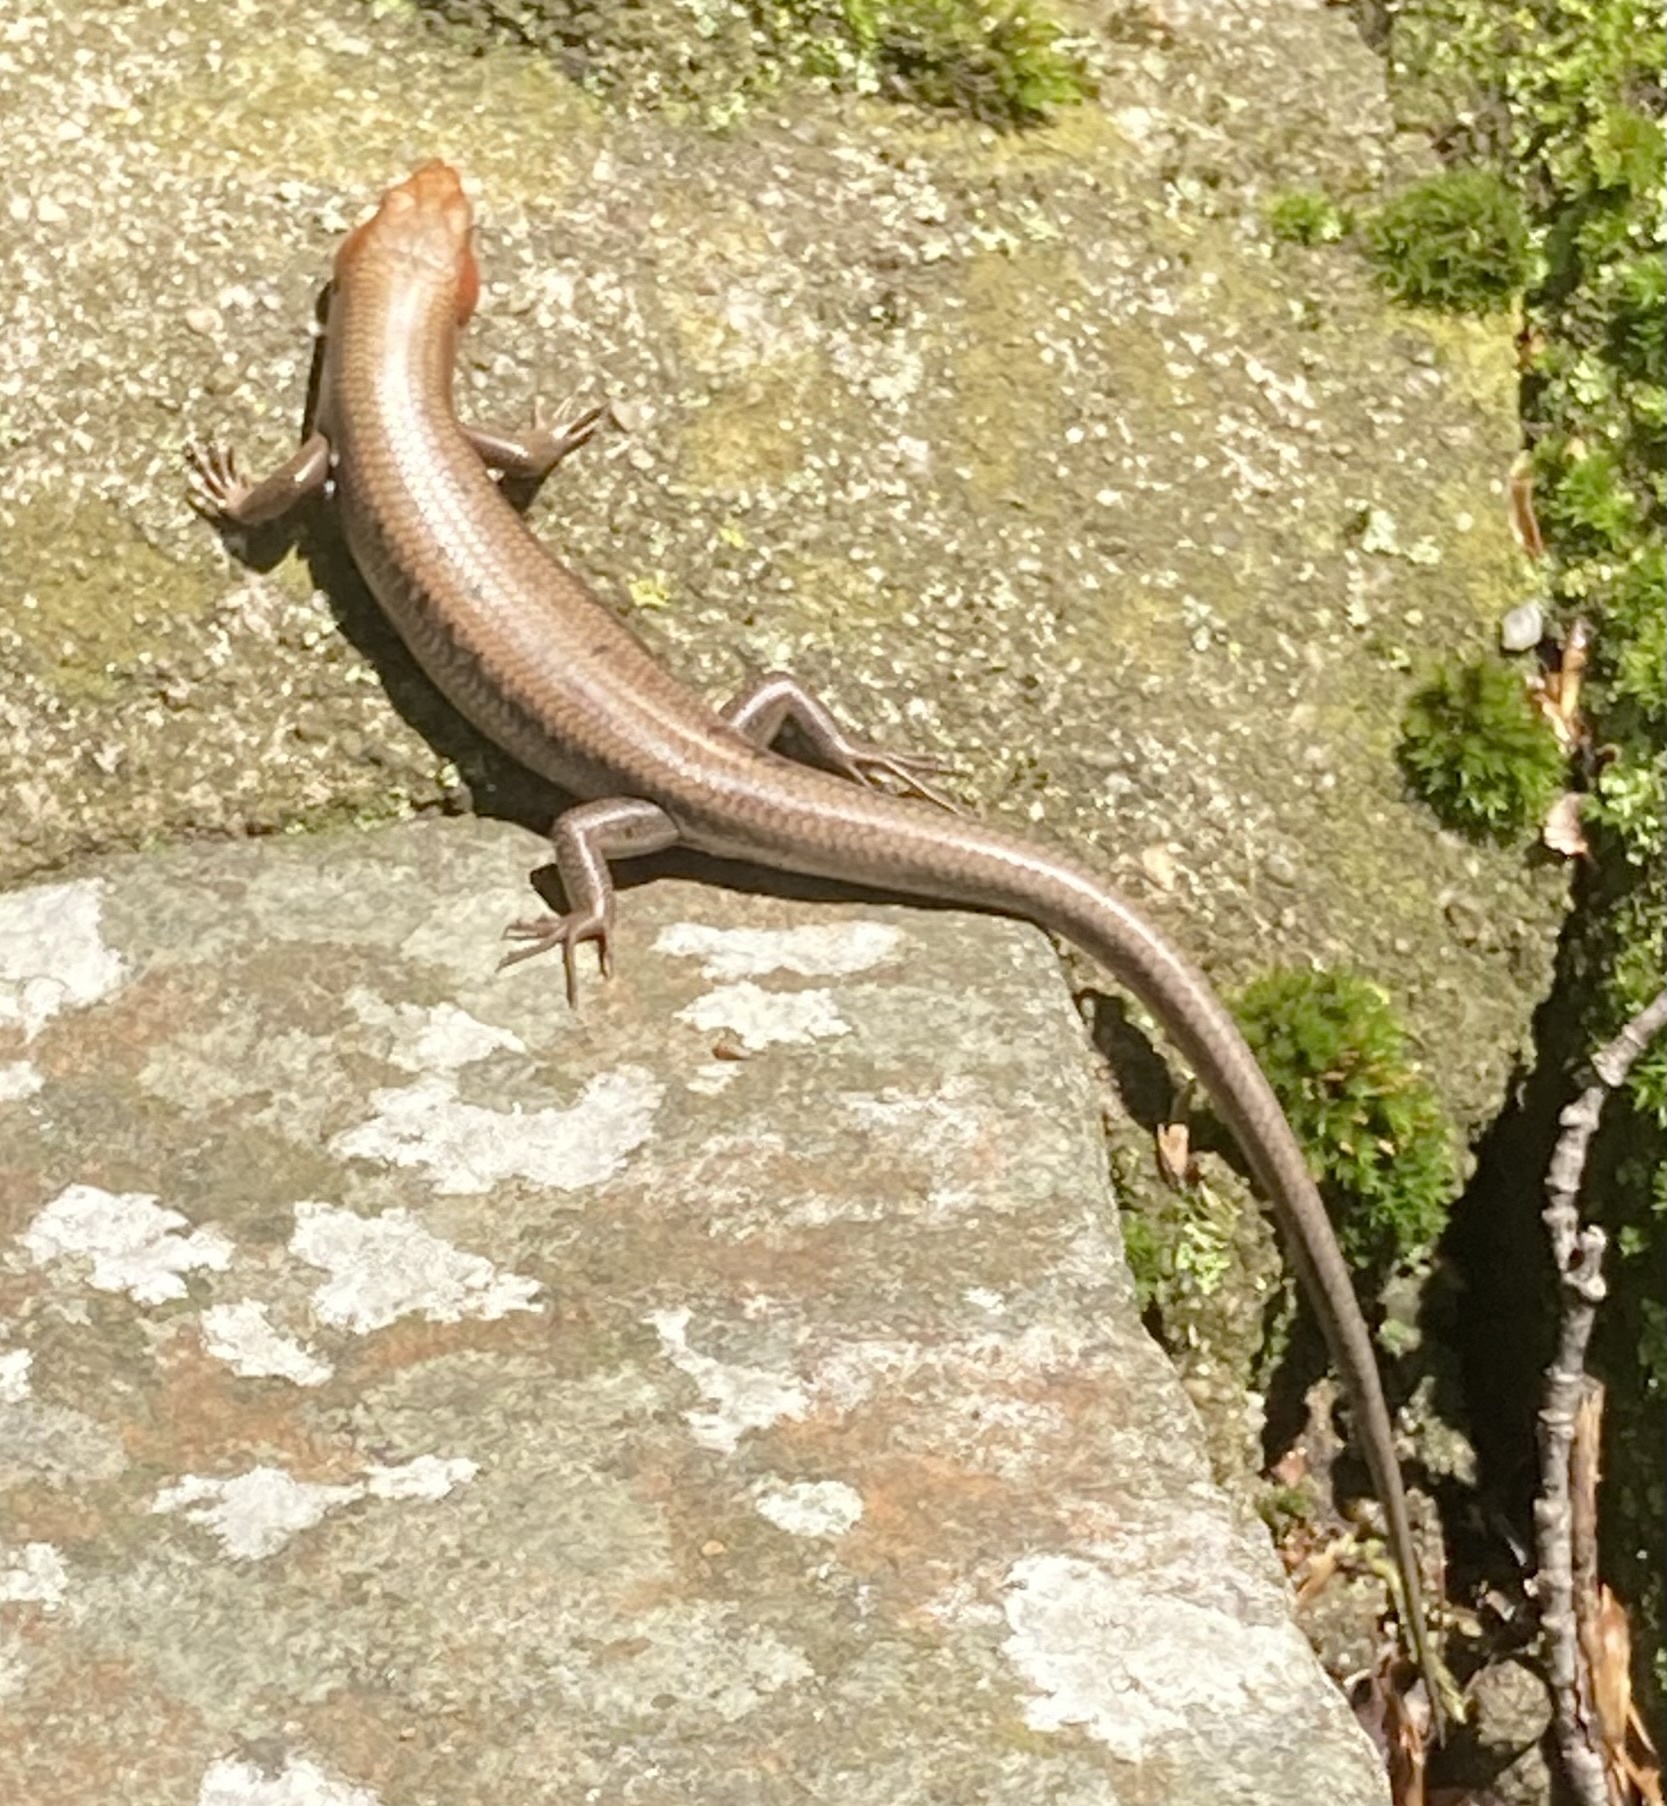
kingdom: Animalia
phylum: Chordata
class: Squamata
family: Scincidae
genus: Plestiodon
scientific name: Plestiodon fasciatus
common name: Five-lined skink
